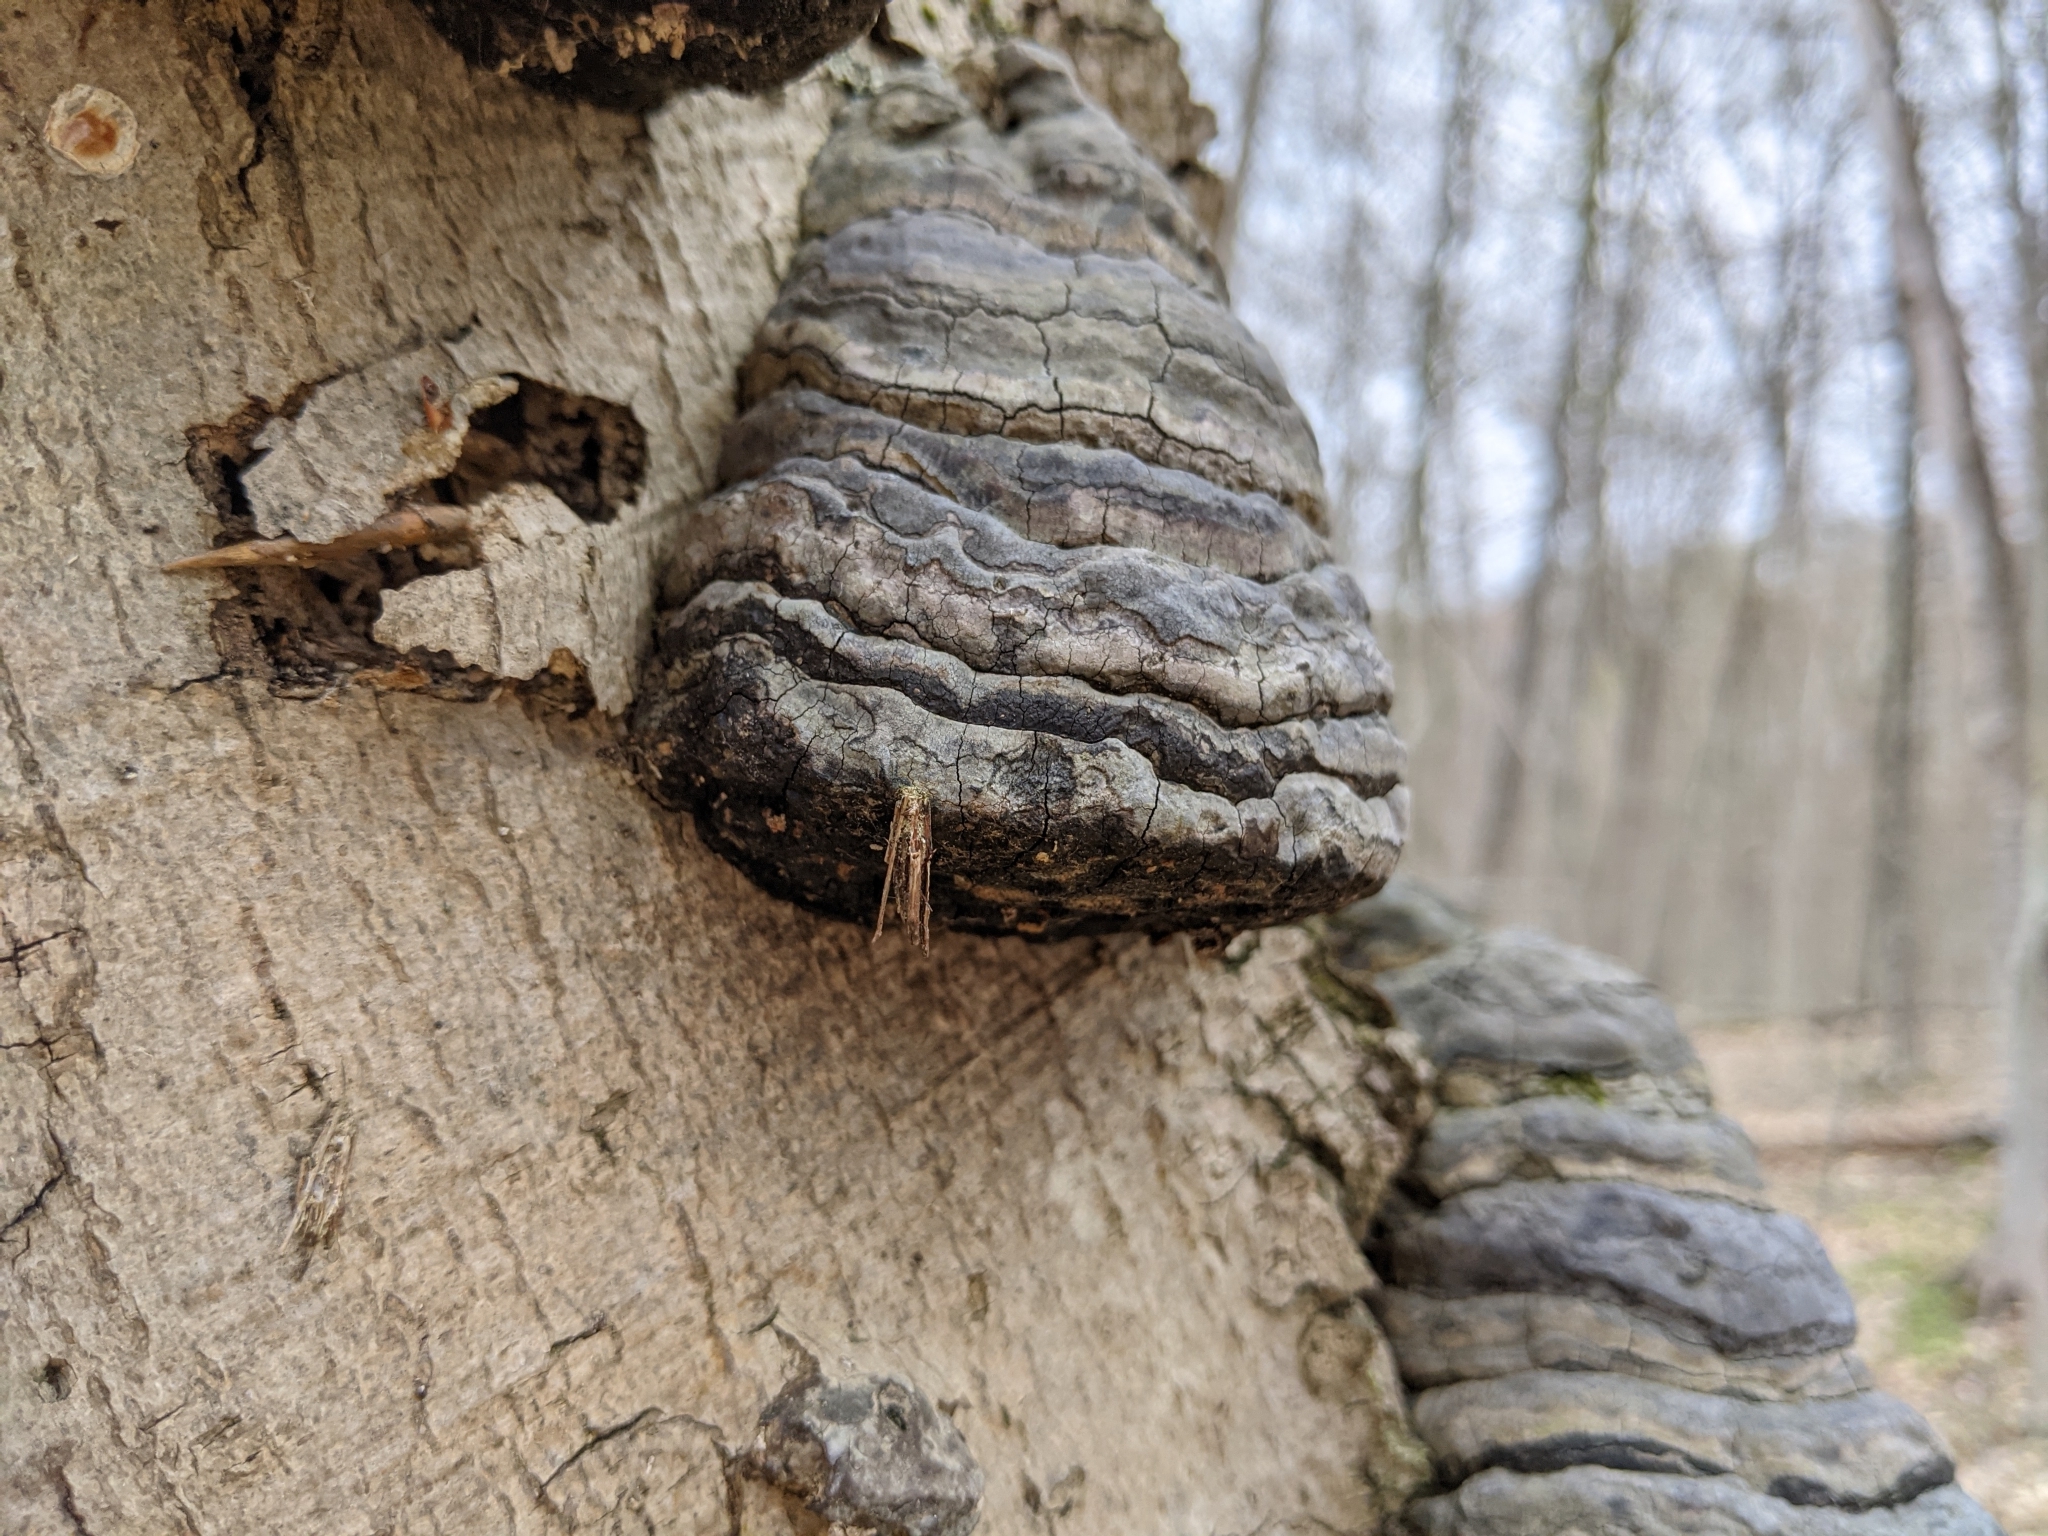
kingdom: Animalia
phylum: Arthropoda
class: Insecta
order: Lepidoptera
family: Psychidae
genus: Psyche
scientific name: Psyche casta
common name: Common sweep
